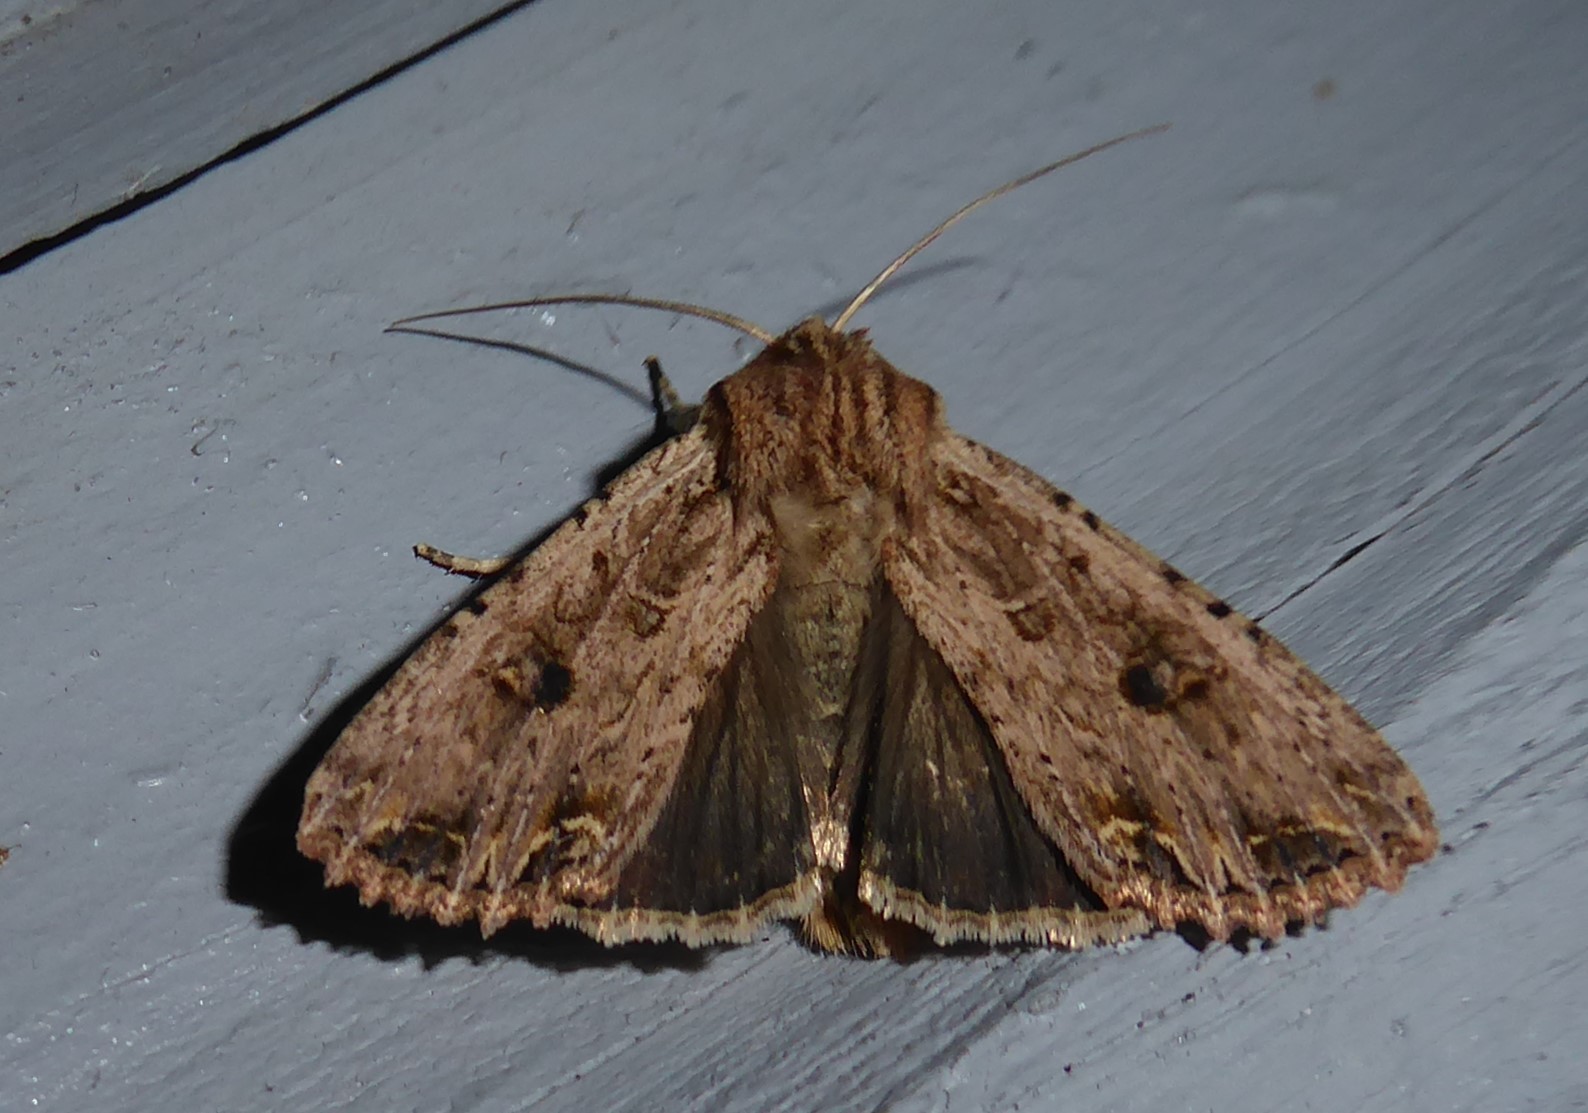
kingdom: Animalia
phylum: Arthropoda
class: Insecta
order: Lepidoptera
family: Noctuidae
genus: Ichneutica
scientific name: Ichneutica lignana
